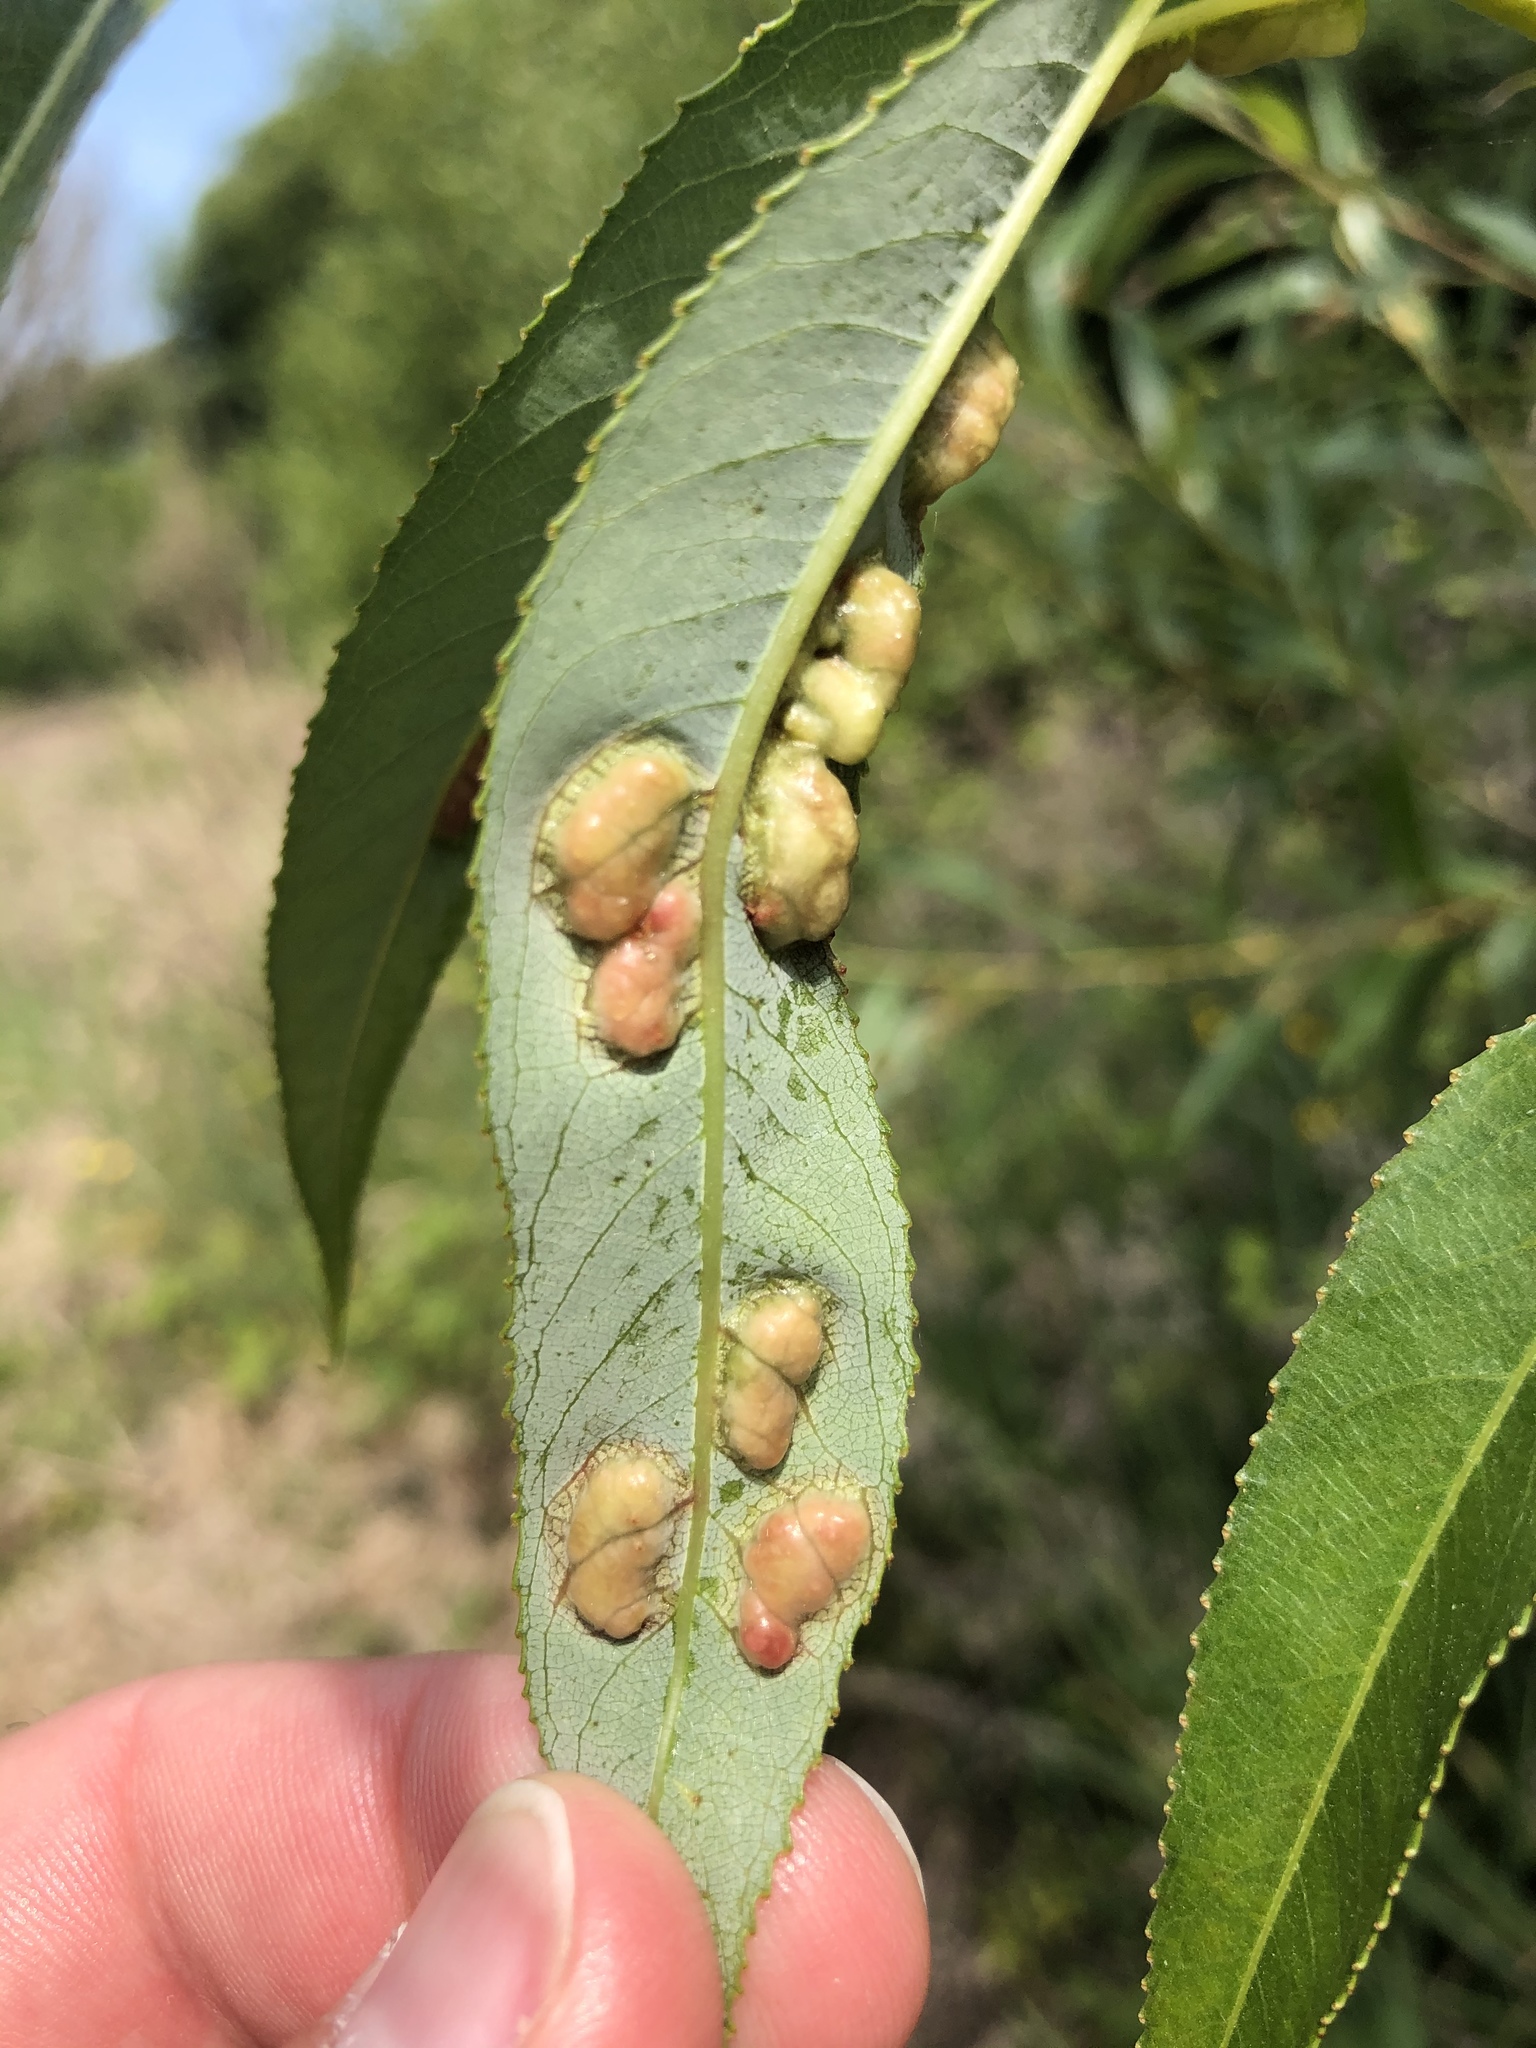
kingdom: Animalia
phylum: Arthropoda
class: Insecta
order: Hymenoptera
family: Tenthredinidae
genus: Pontania
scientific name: Pontania proxima
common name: Common sawfly
